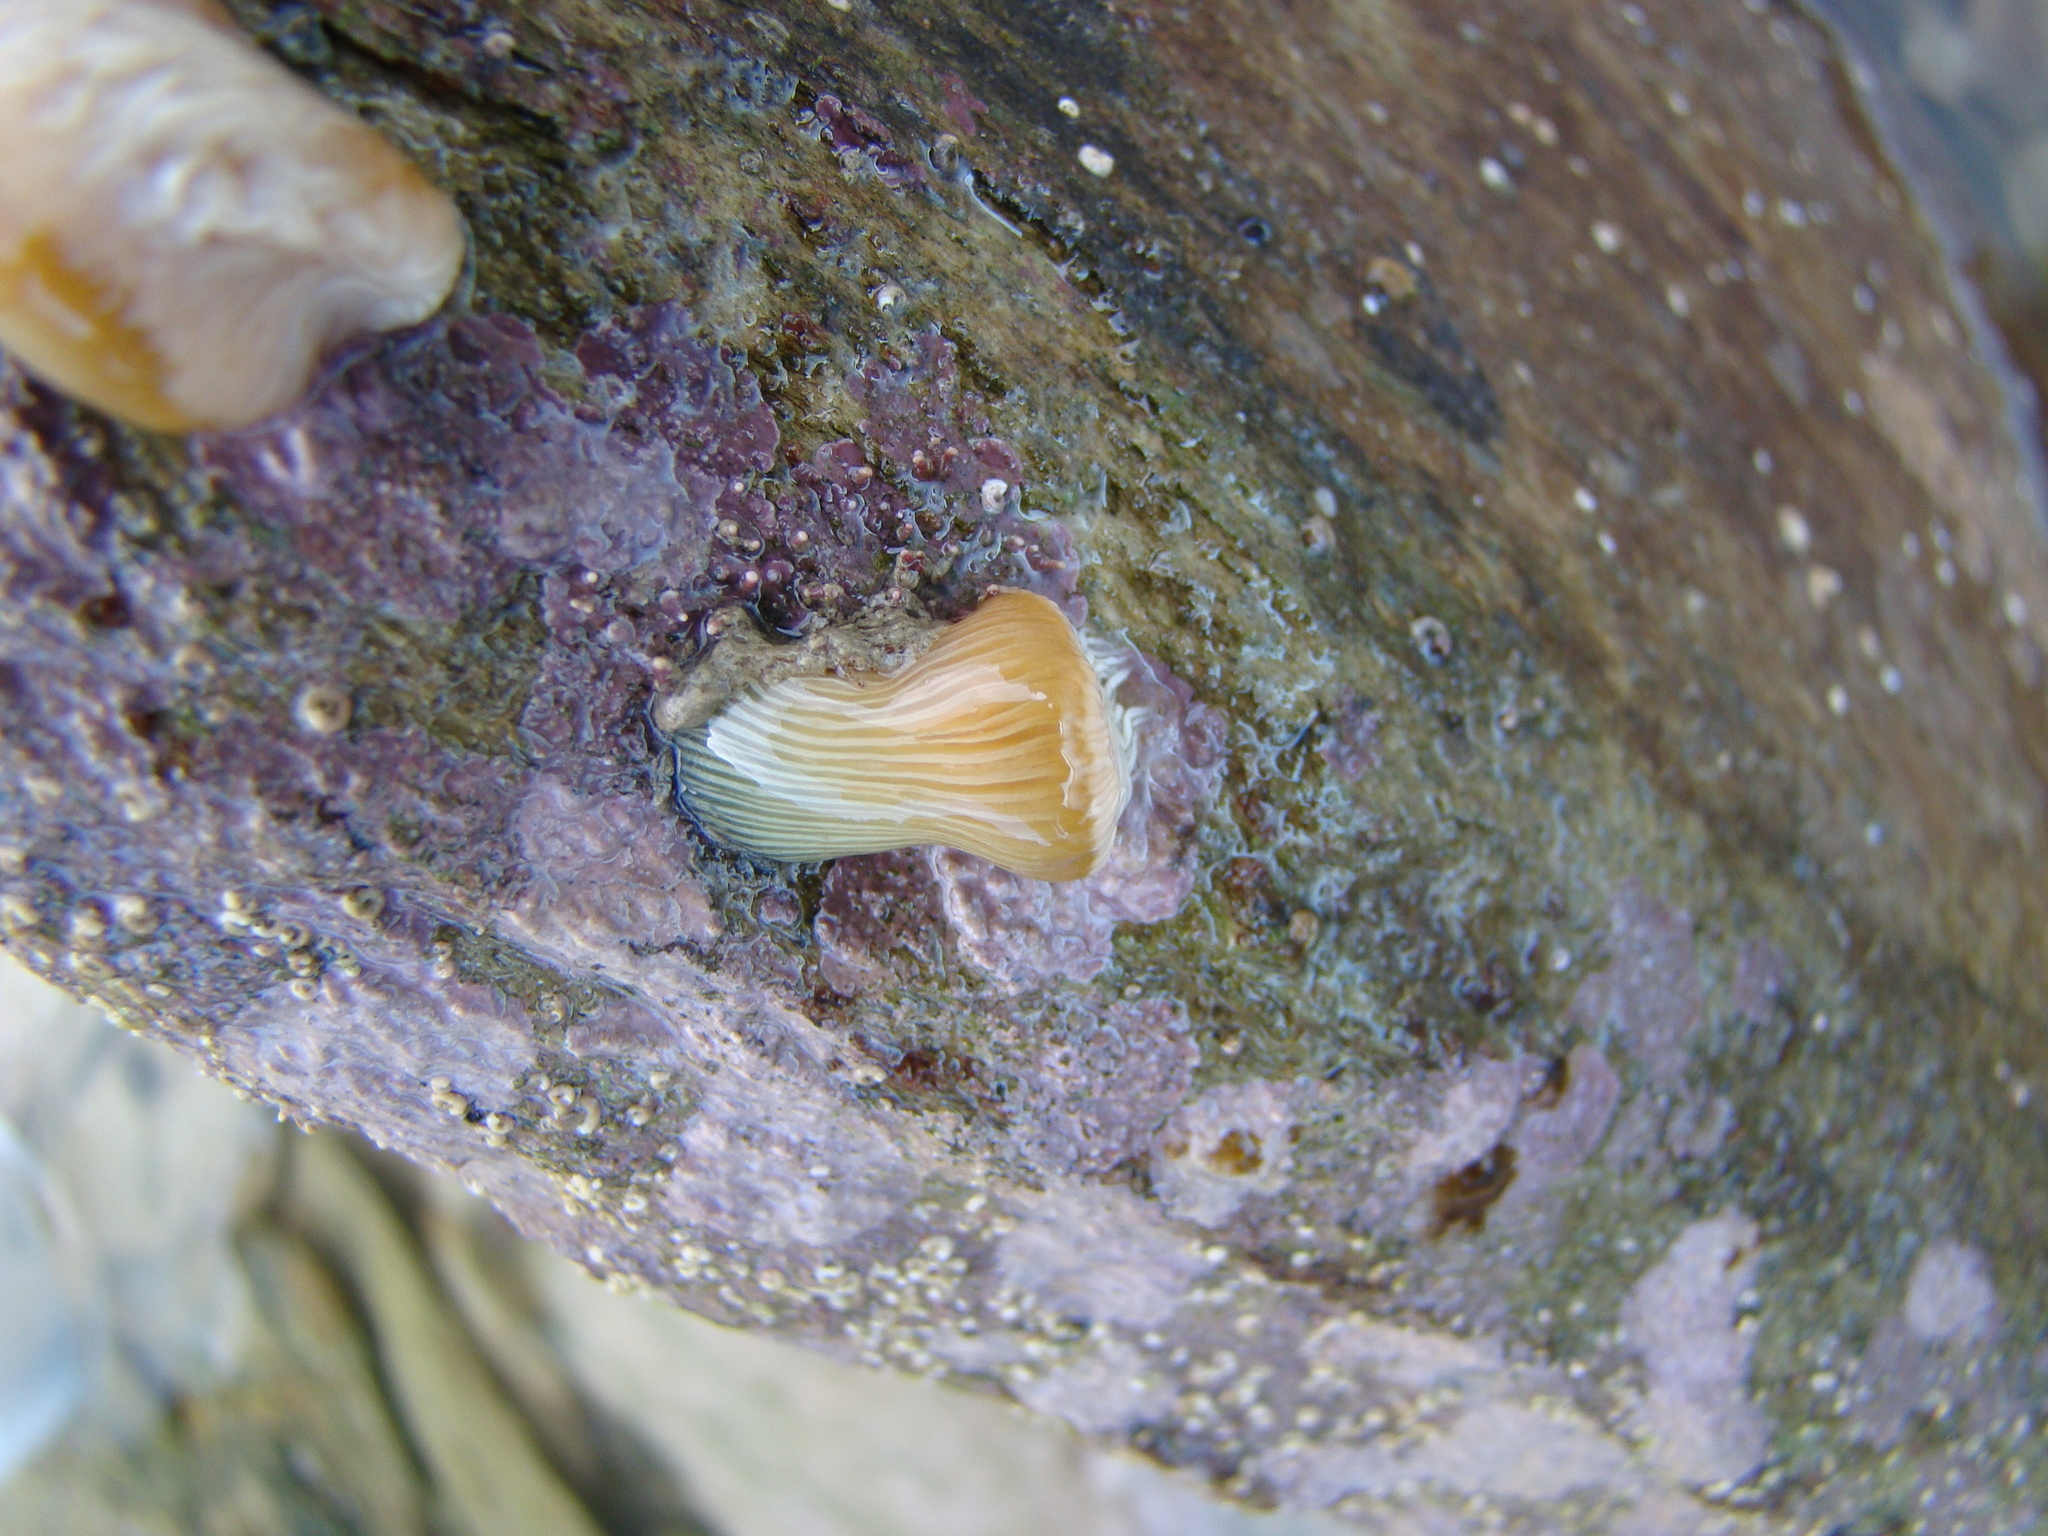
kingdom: Animalia
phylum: Cnidaria
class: Anthozoa
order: Actiniaria
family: Sagartiidae
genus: Anthothoe
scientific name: Anthothoe albocincta
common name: Orange striped anemone
